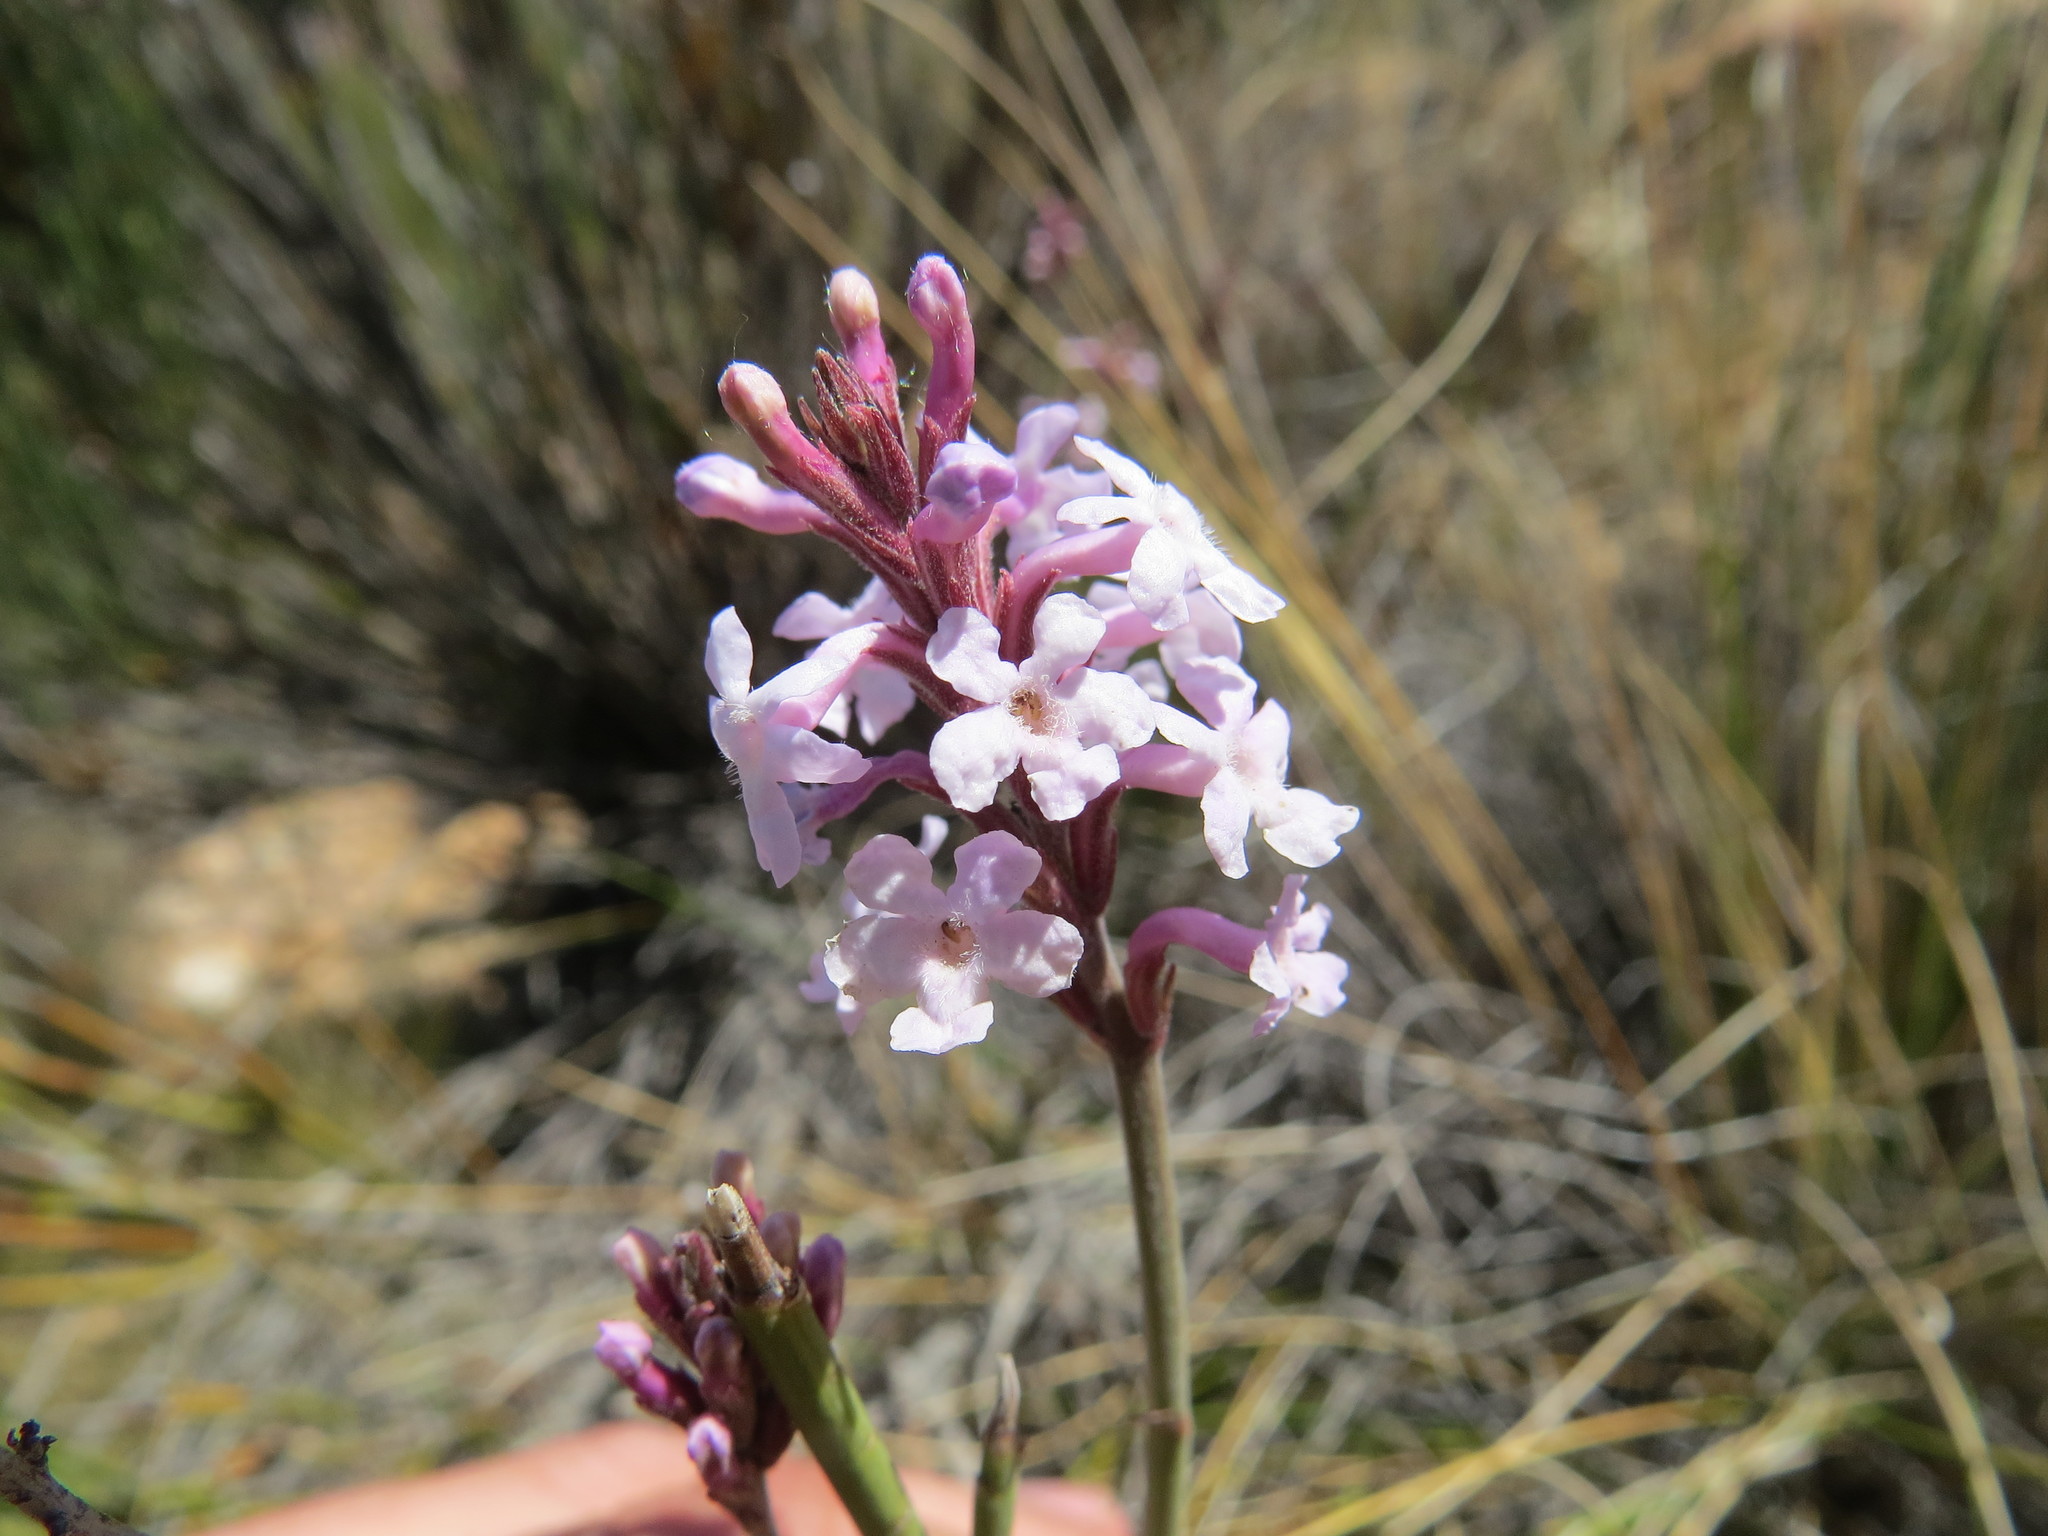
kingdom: Plantae
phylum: Tracheophyta
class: Magnoliopsida
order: Lamiales
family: Verbenaceae
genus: Mulguraea
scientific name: Mulguraea scoparia
